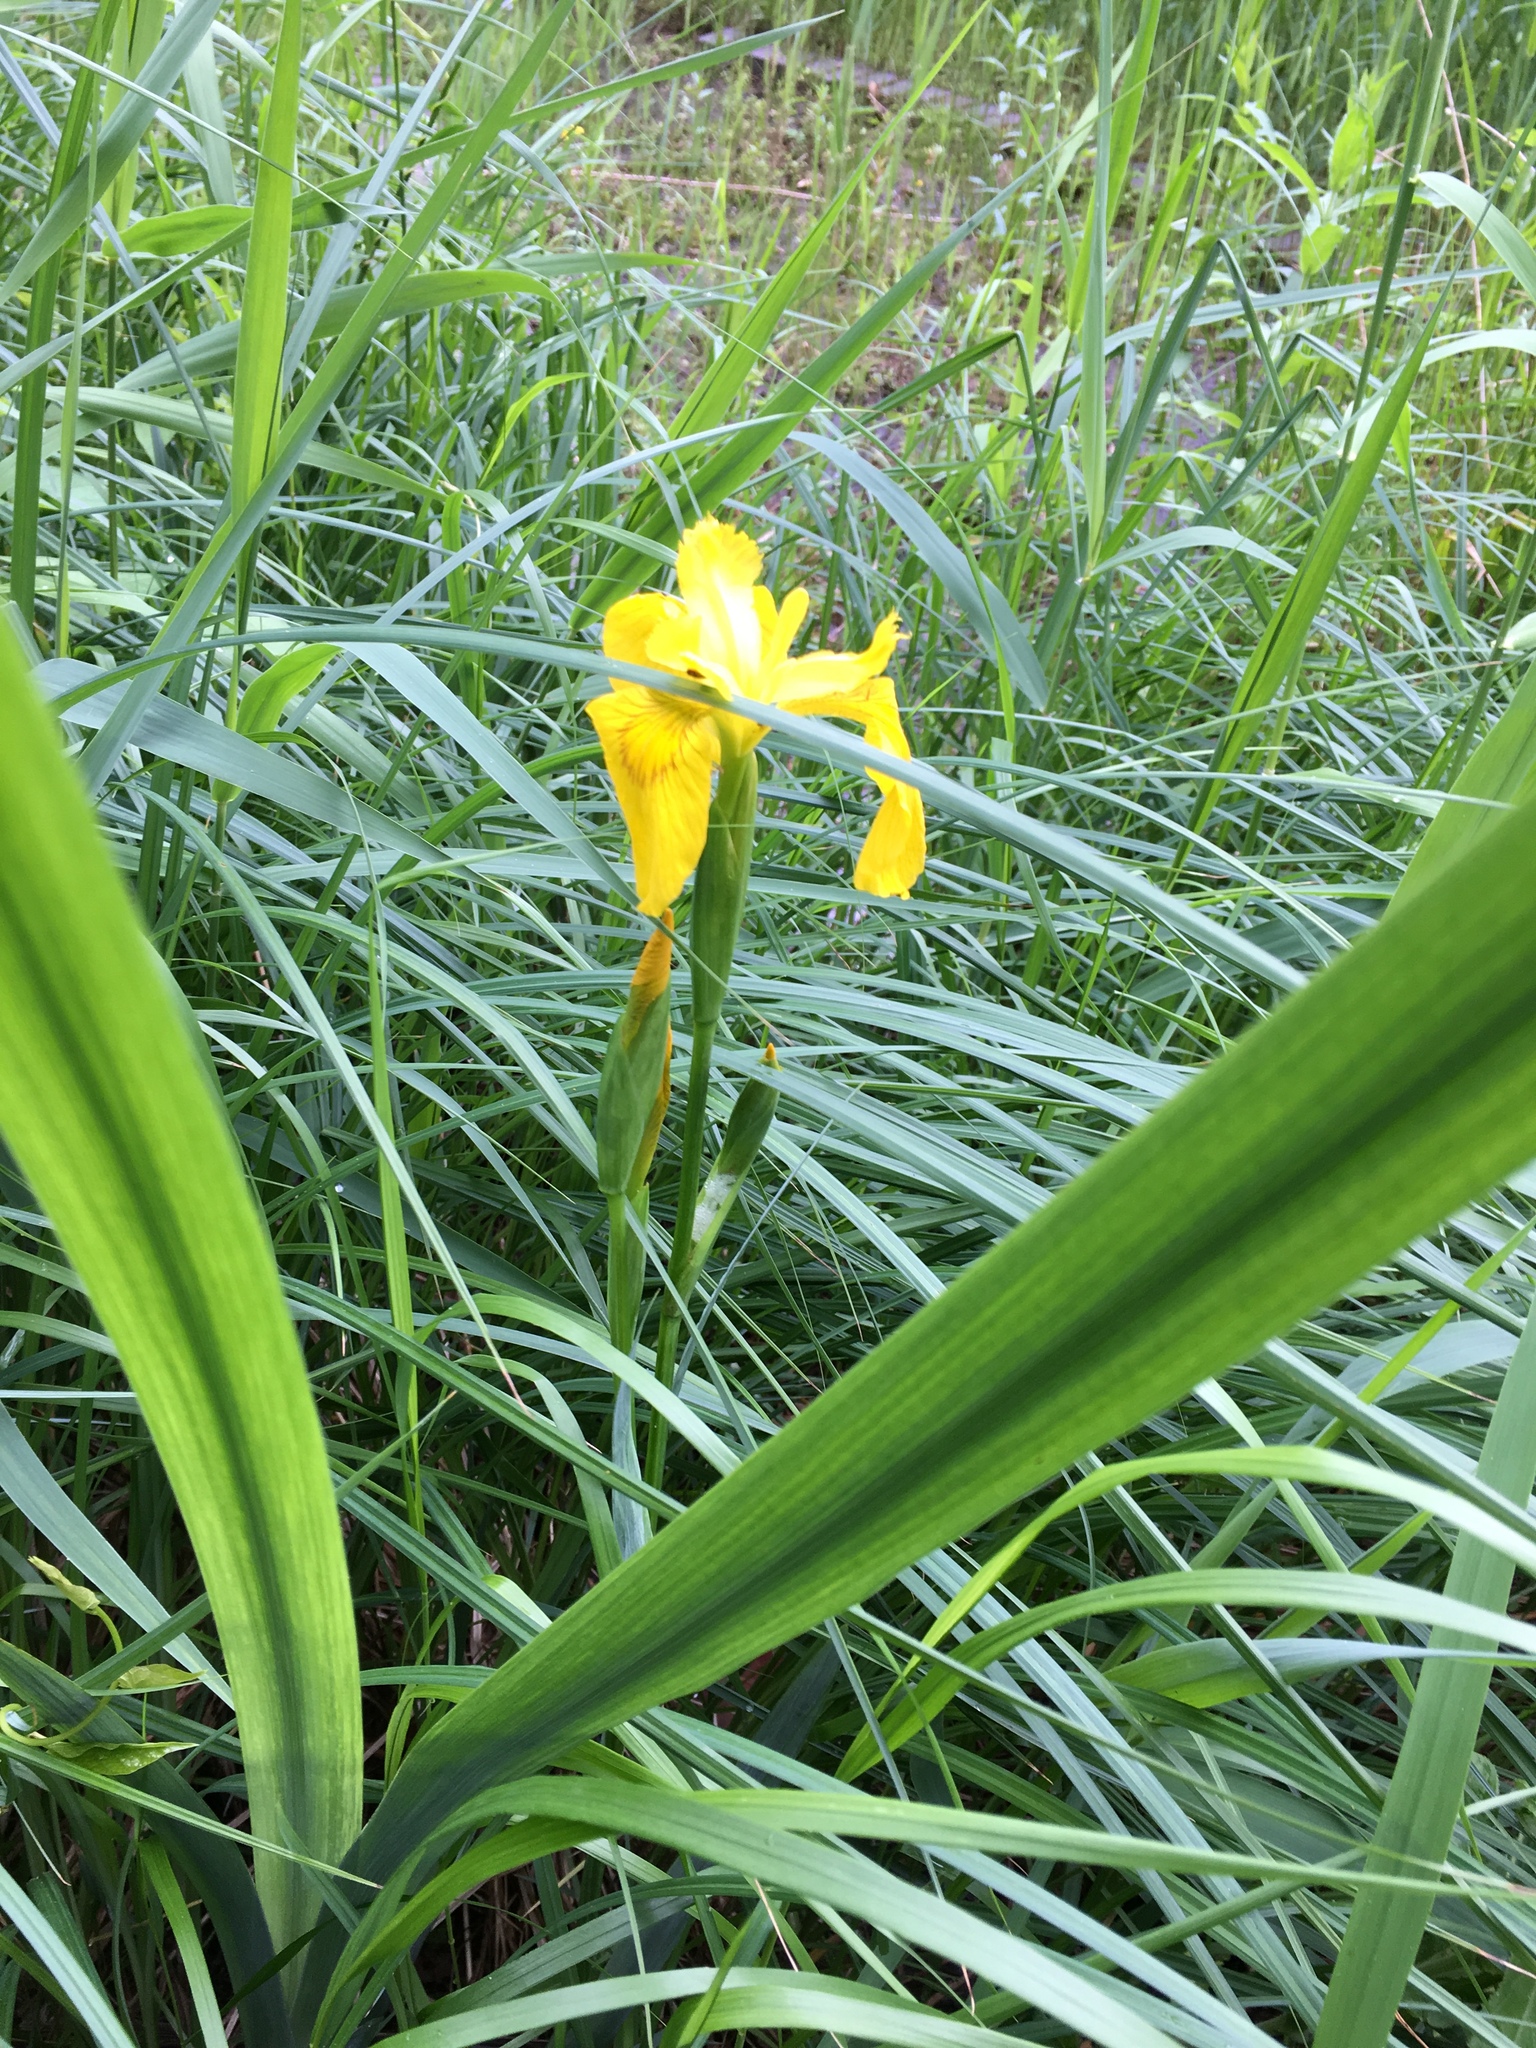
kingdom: Plantae
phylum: Tracheophyta
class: Liliopsida
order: Asparagales
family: Iridaceae
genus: Iris
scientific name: Iris pseudacorus
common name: Yellow flag
